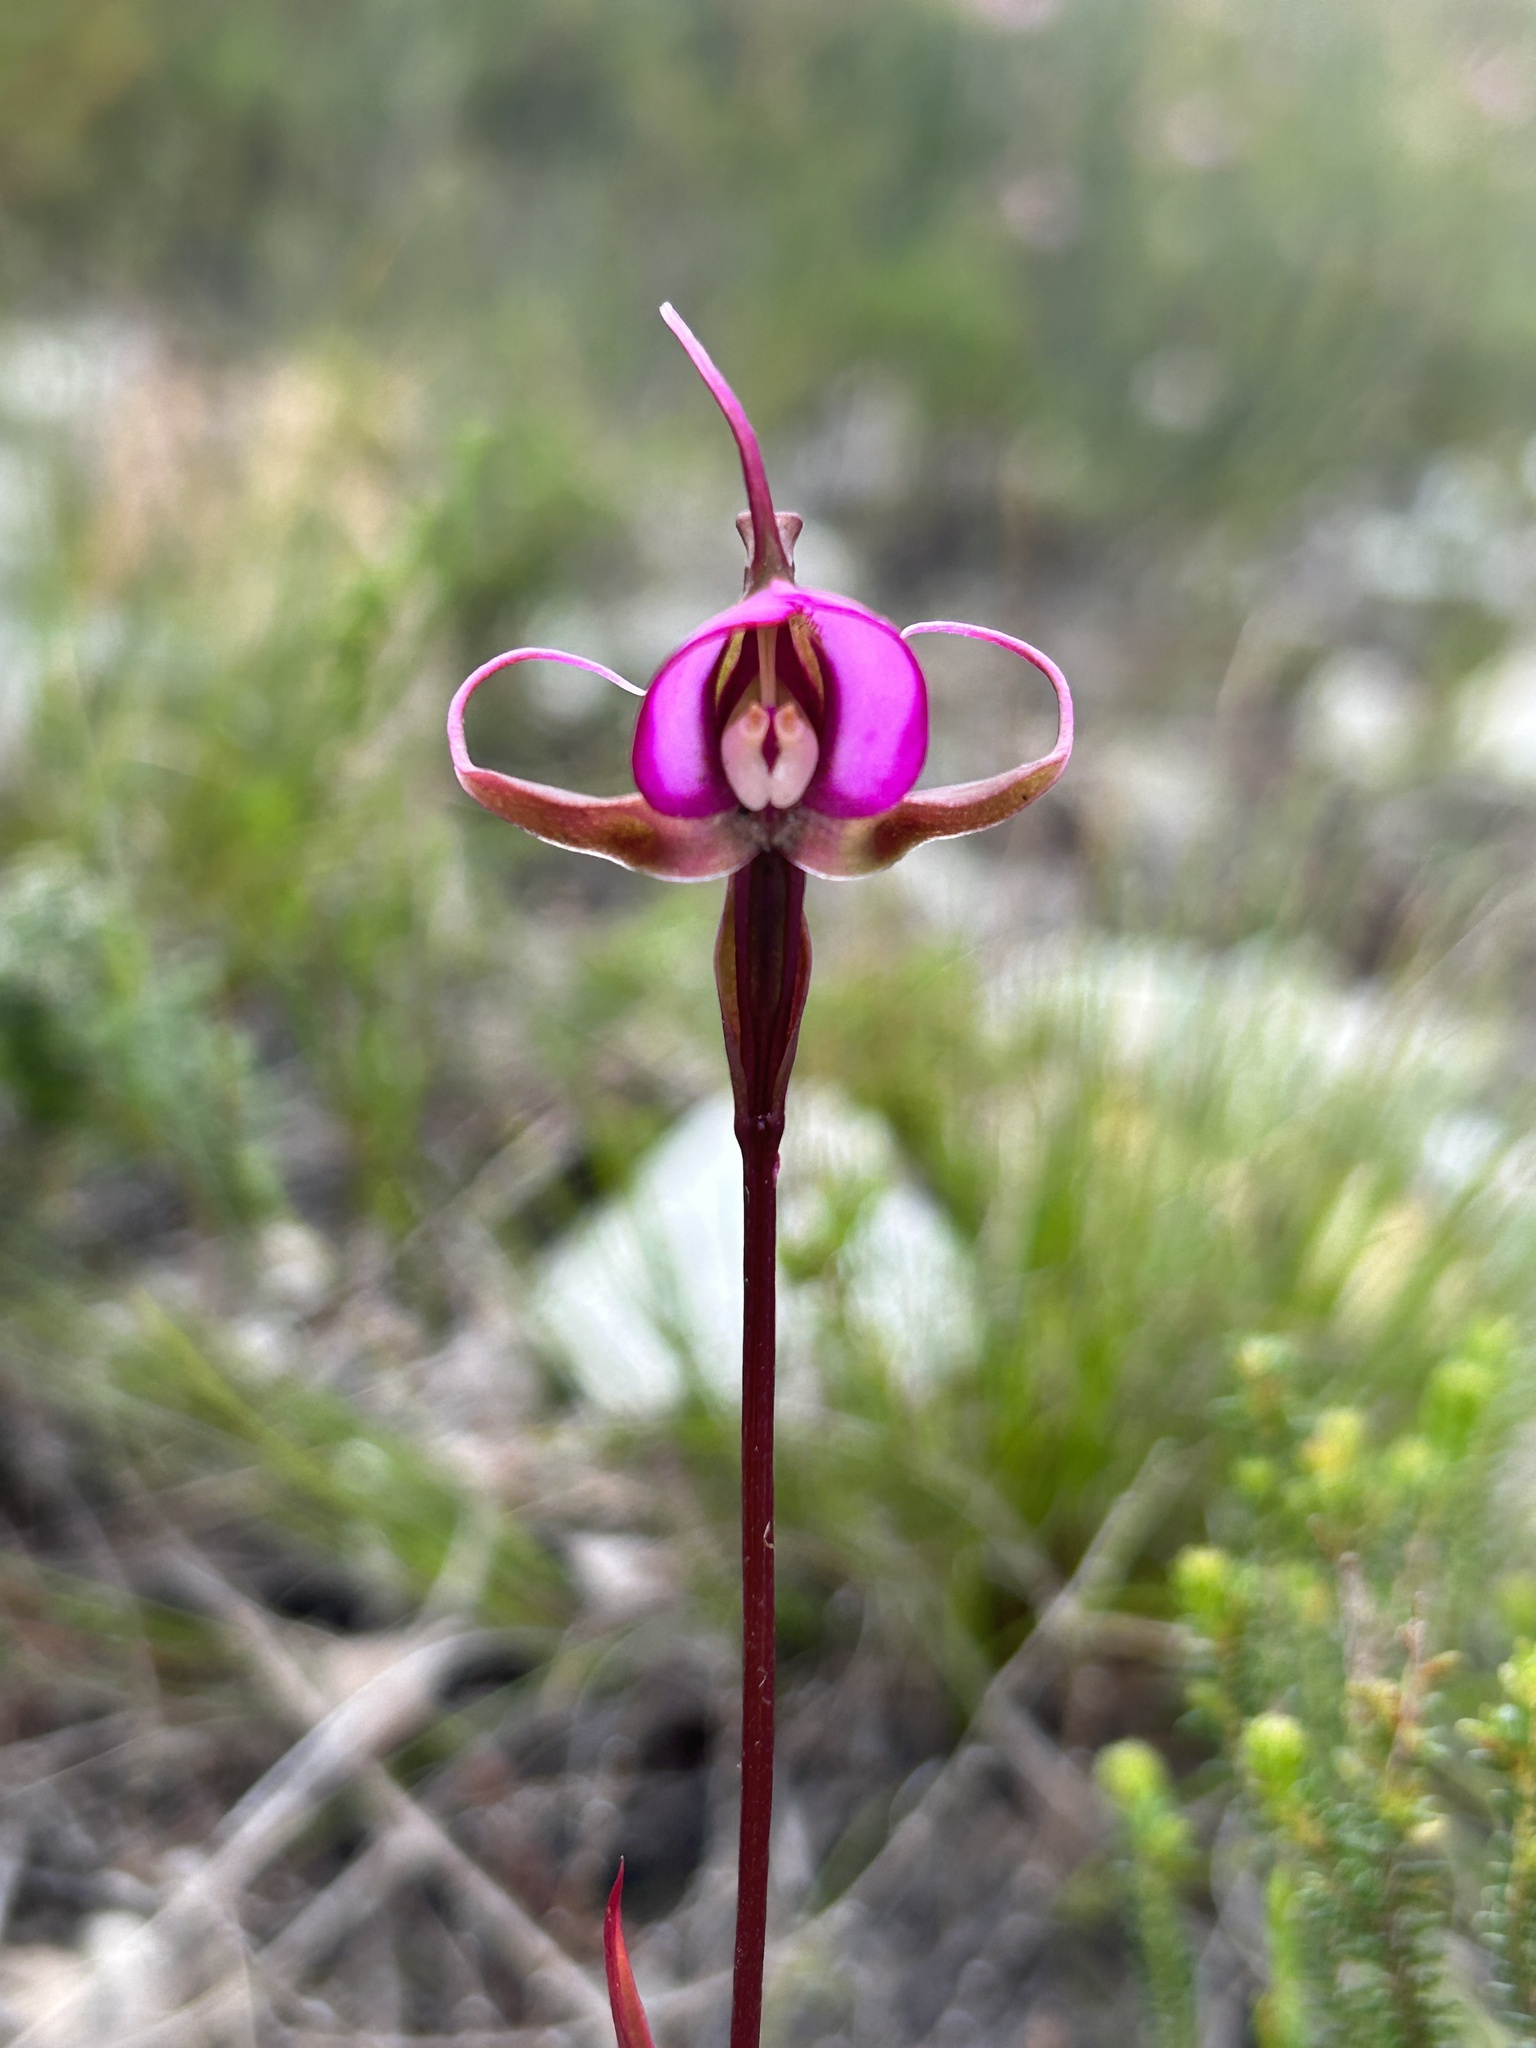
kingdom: Plantae
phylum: Tracheophyta
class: Liliopsida
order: Asparagales
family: Orchidaceae
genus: Disperis
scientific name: Disperis capensis
